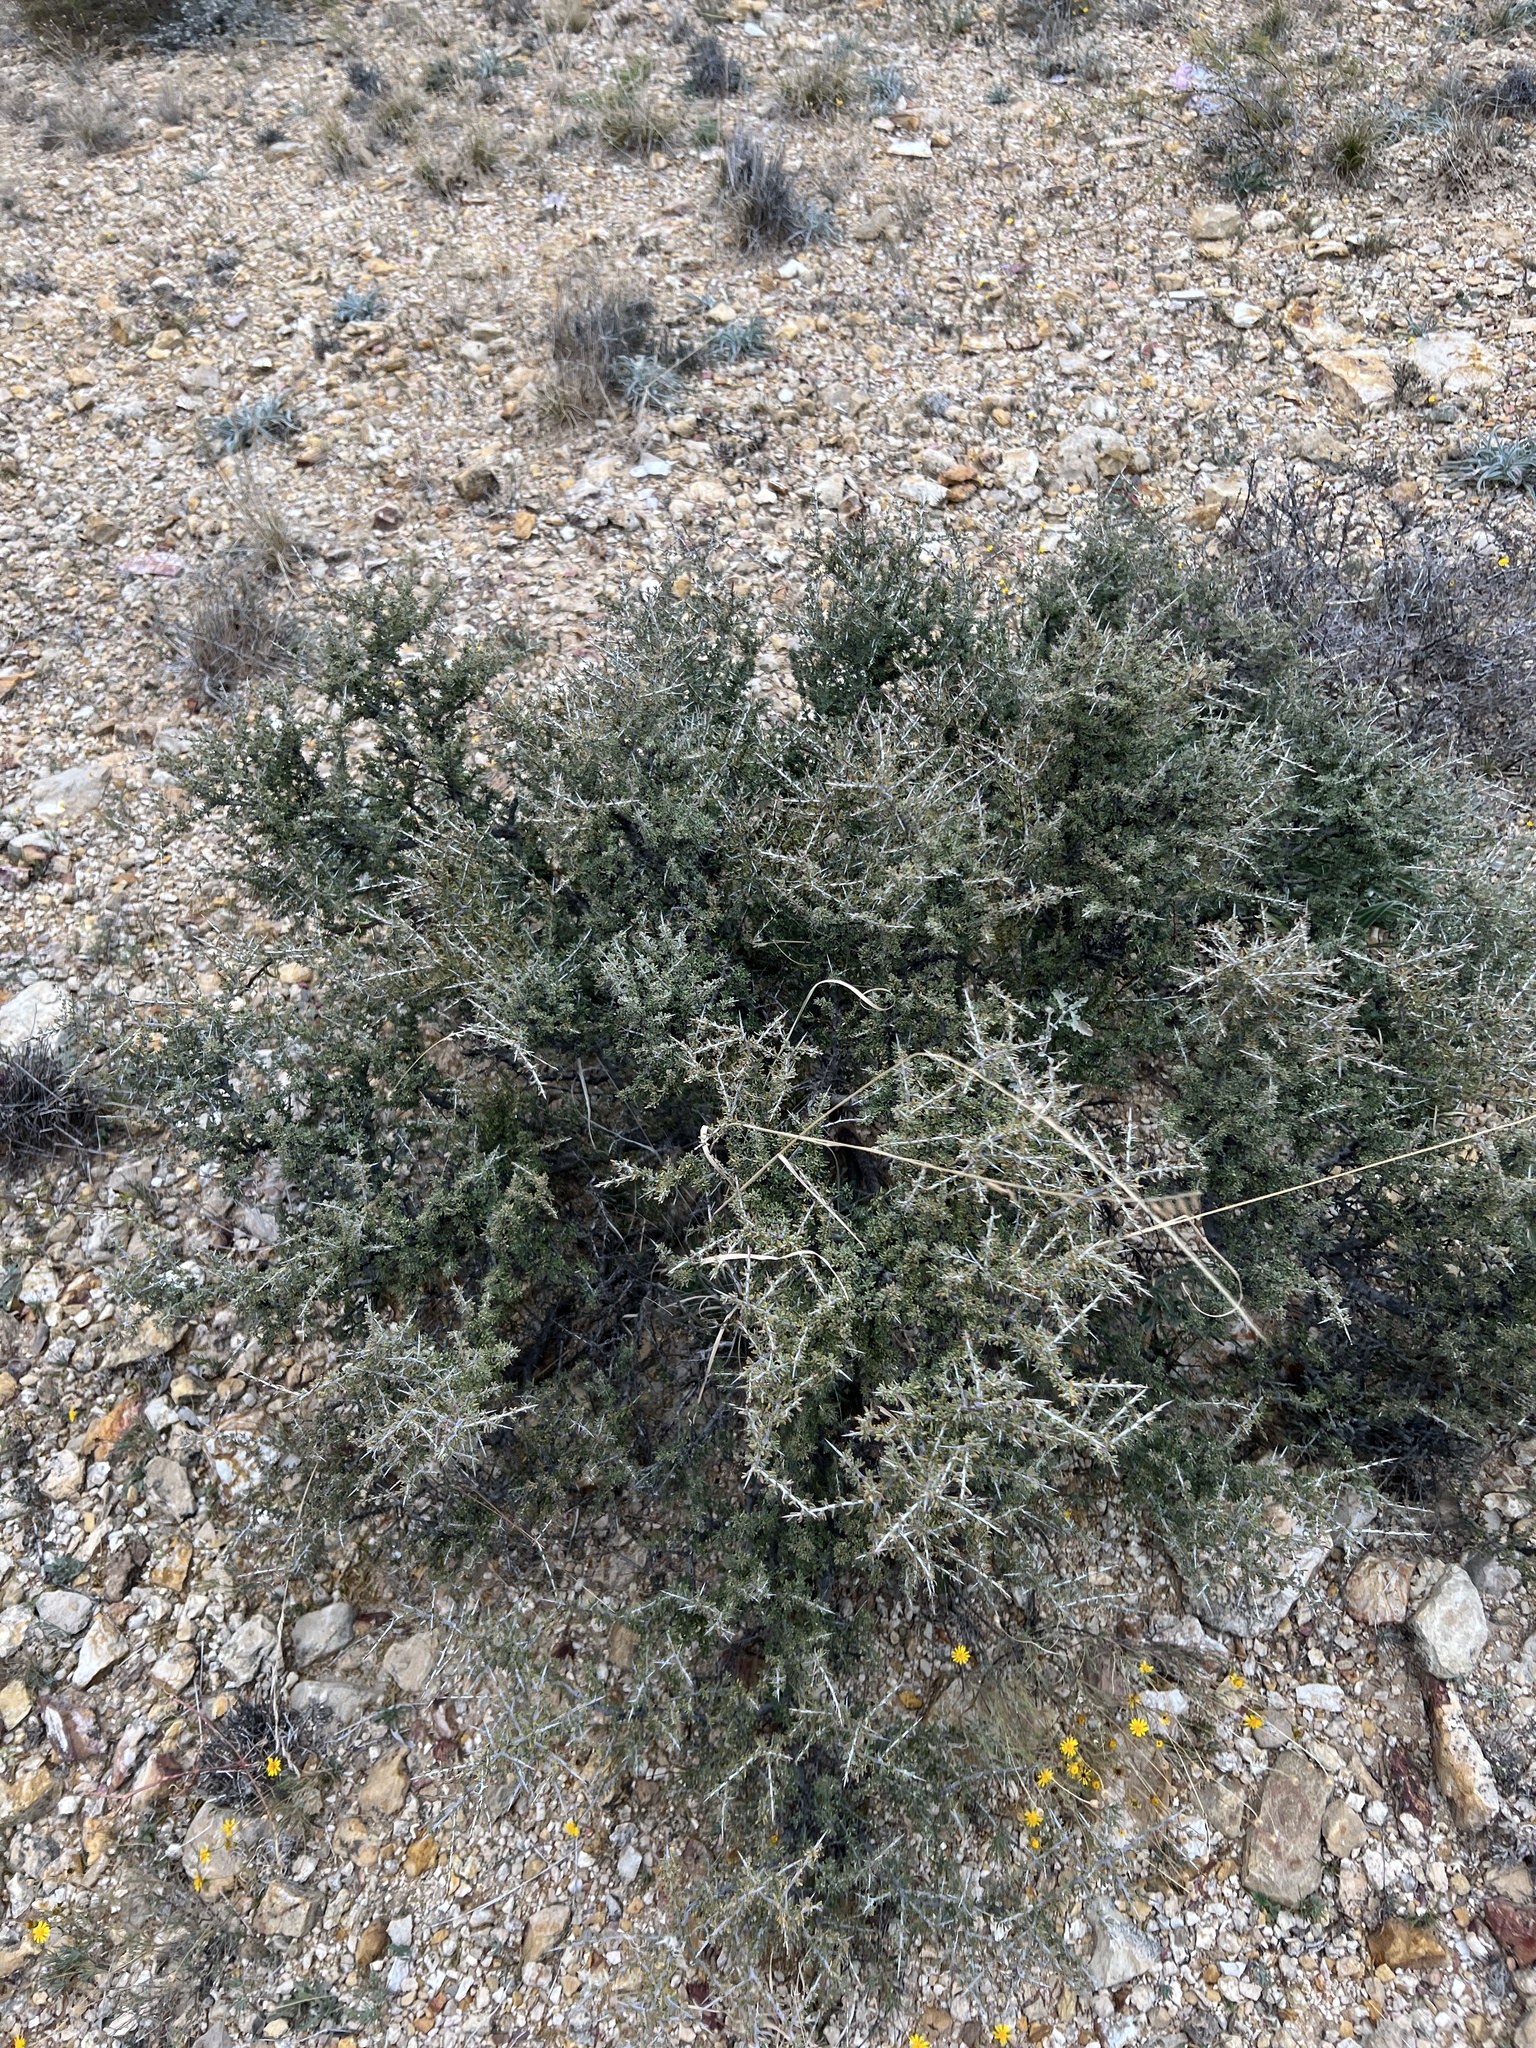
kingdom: Plantae
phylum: Tracheophyta
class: Magnoliopsida
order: Rosales
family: Rhamnaceae
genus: Condalia
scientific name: Condalia ericoides
